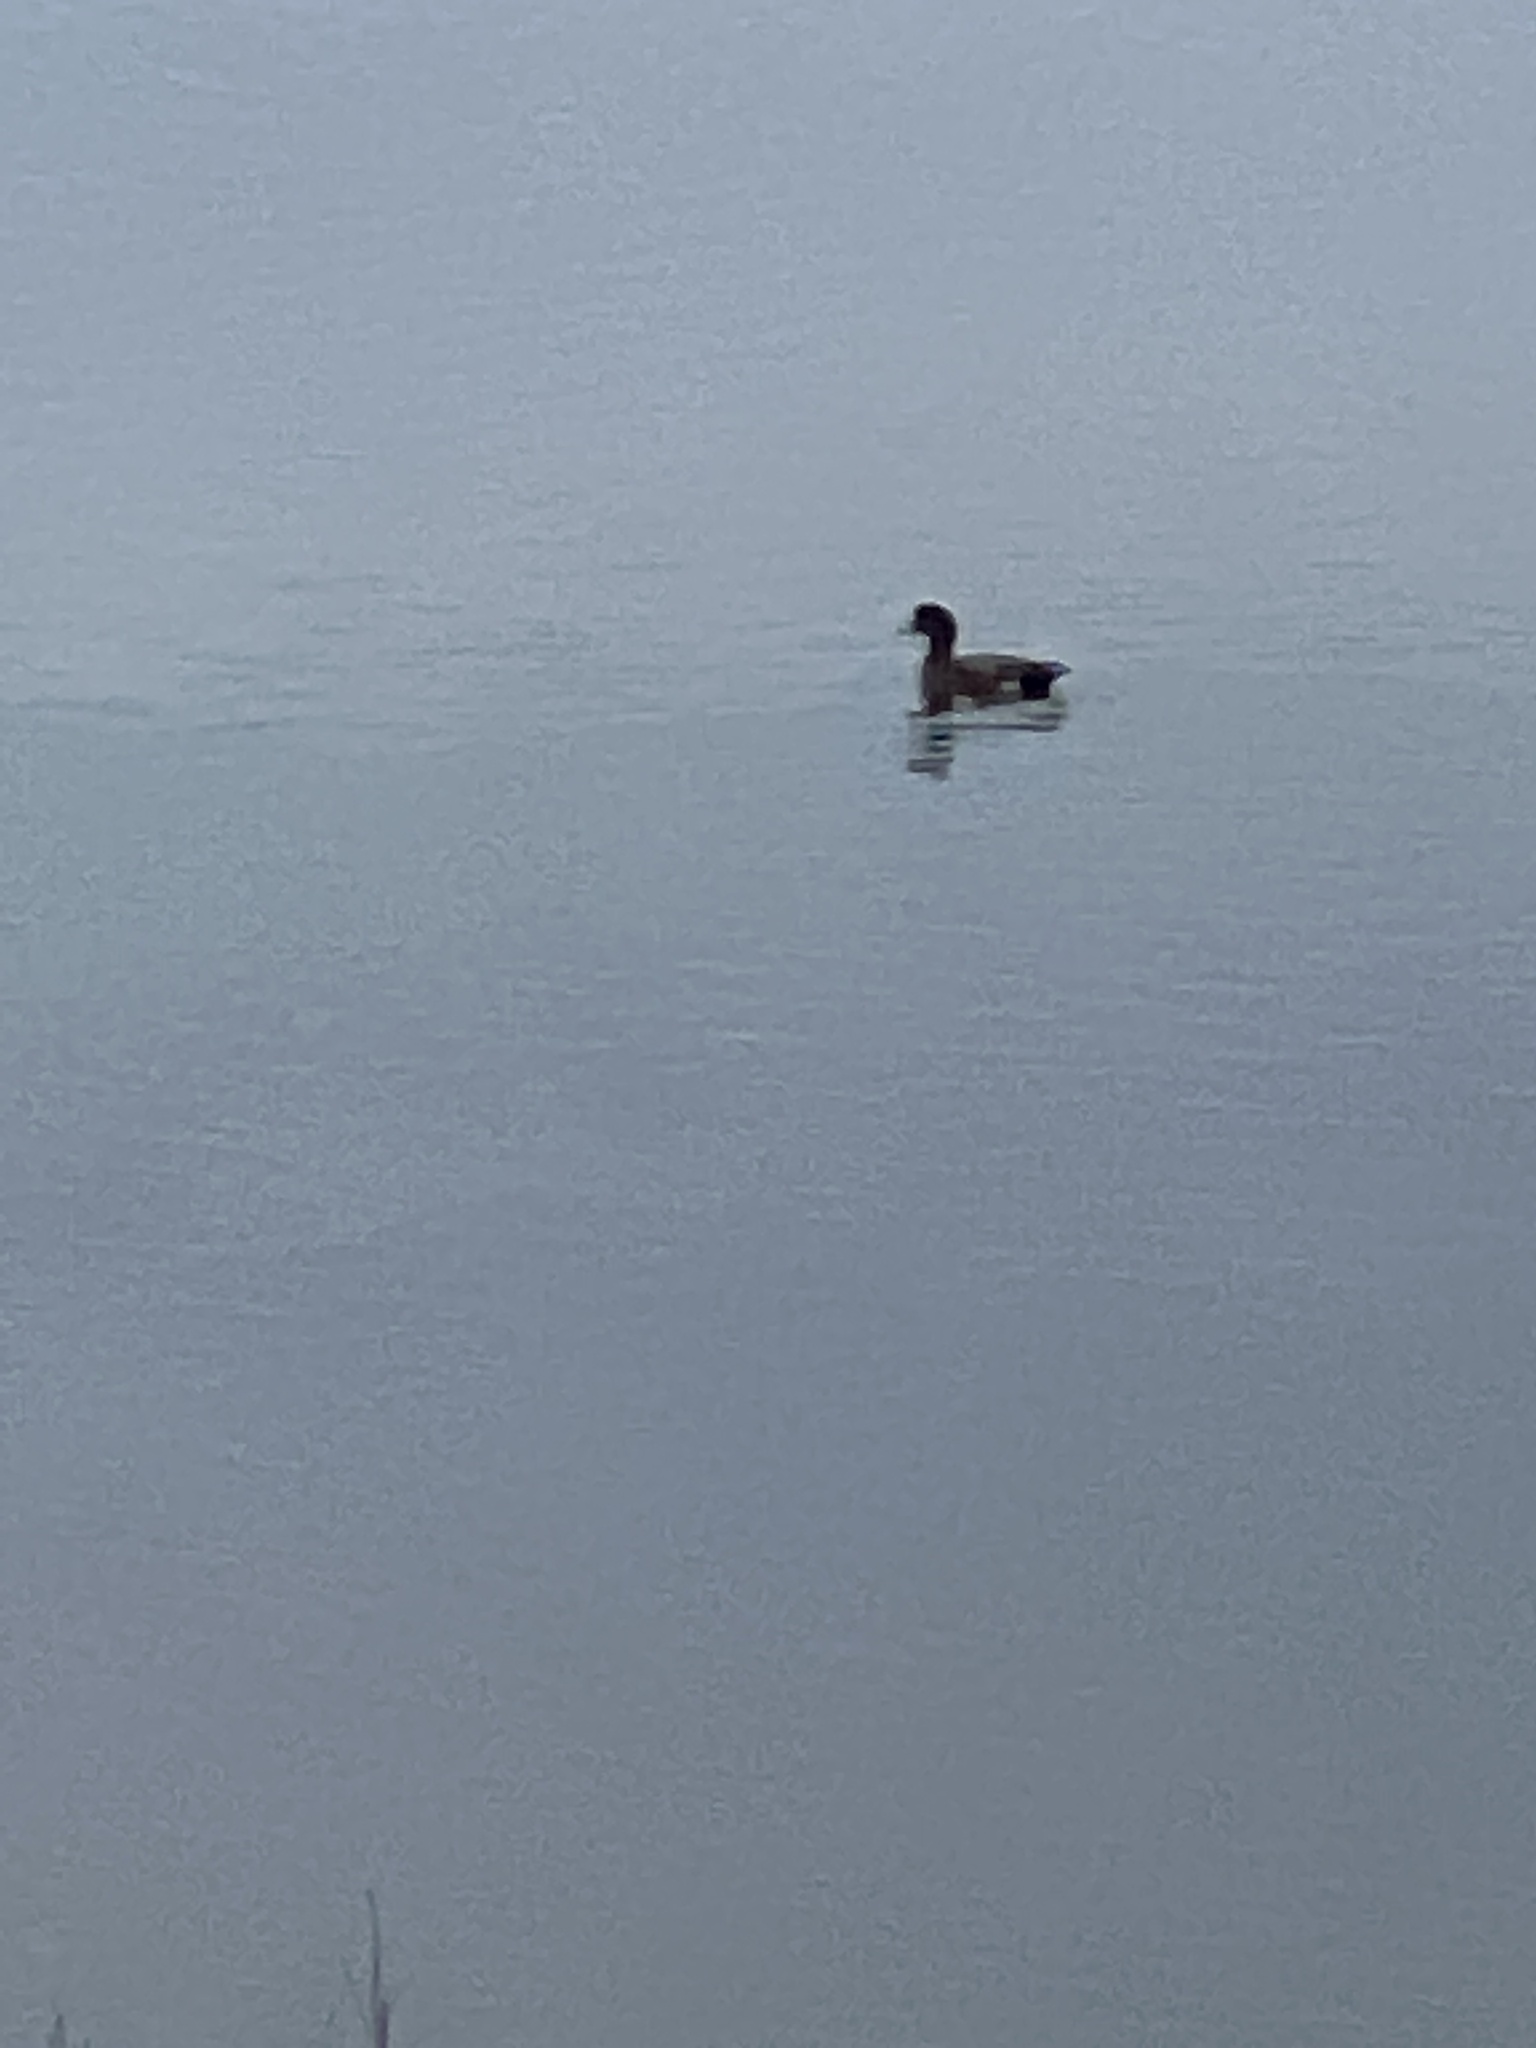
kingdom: Animalia
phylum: Chordata
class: Aves
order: Anseriformes
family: Anatidae
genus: Mareca
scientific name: Mareca americana
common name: American wigeon
